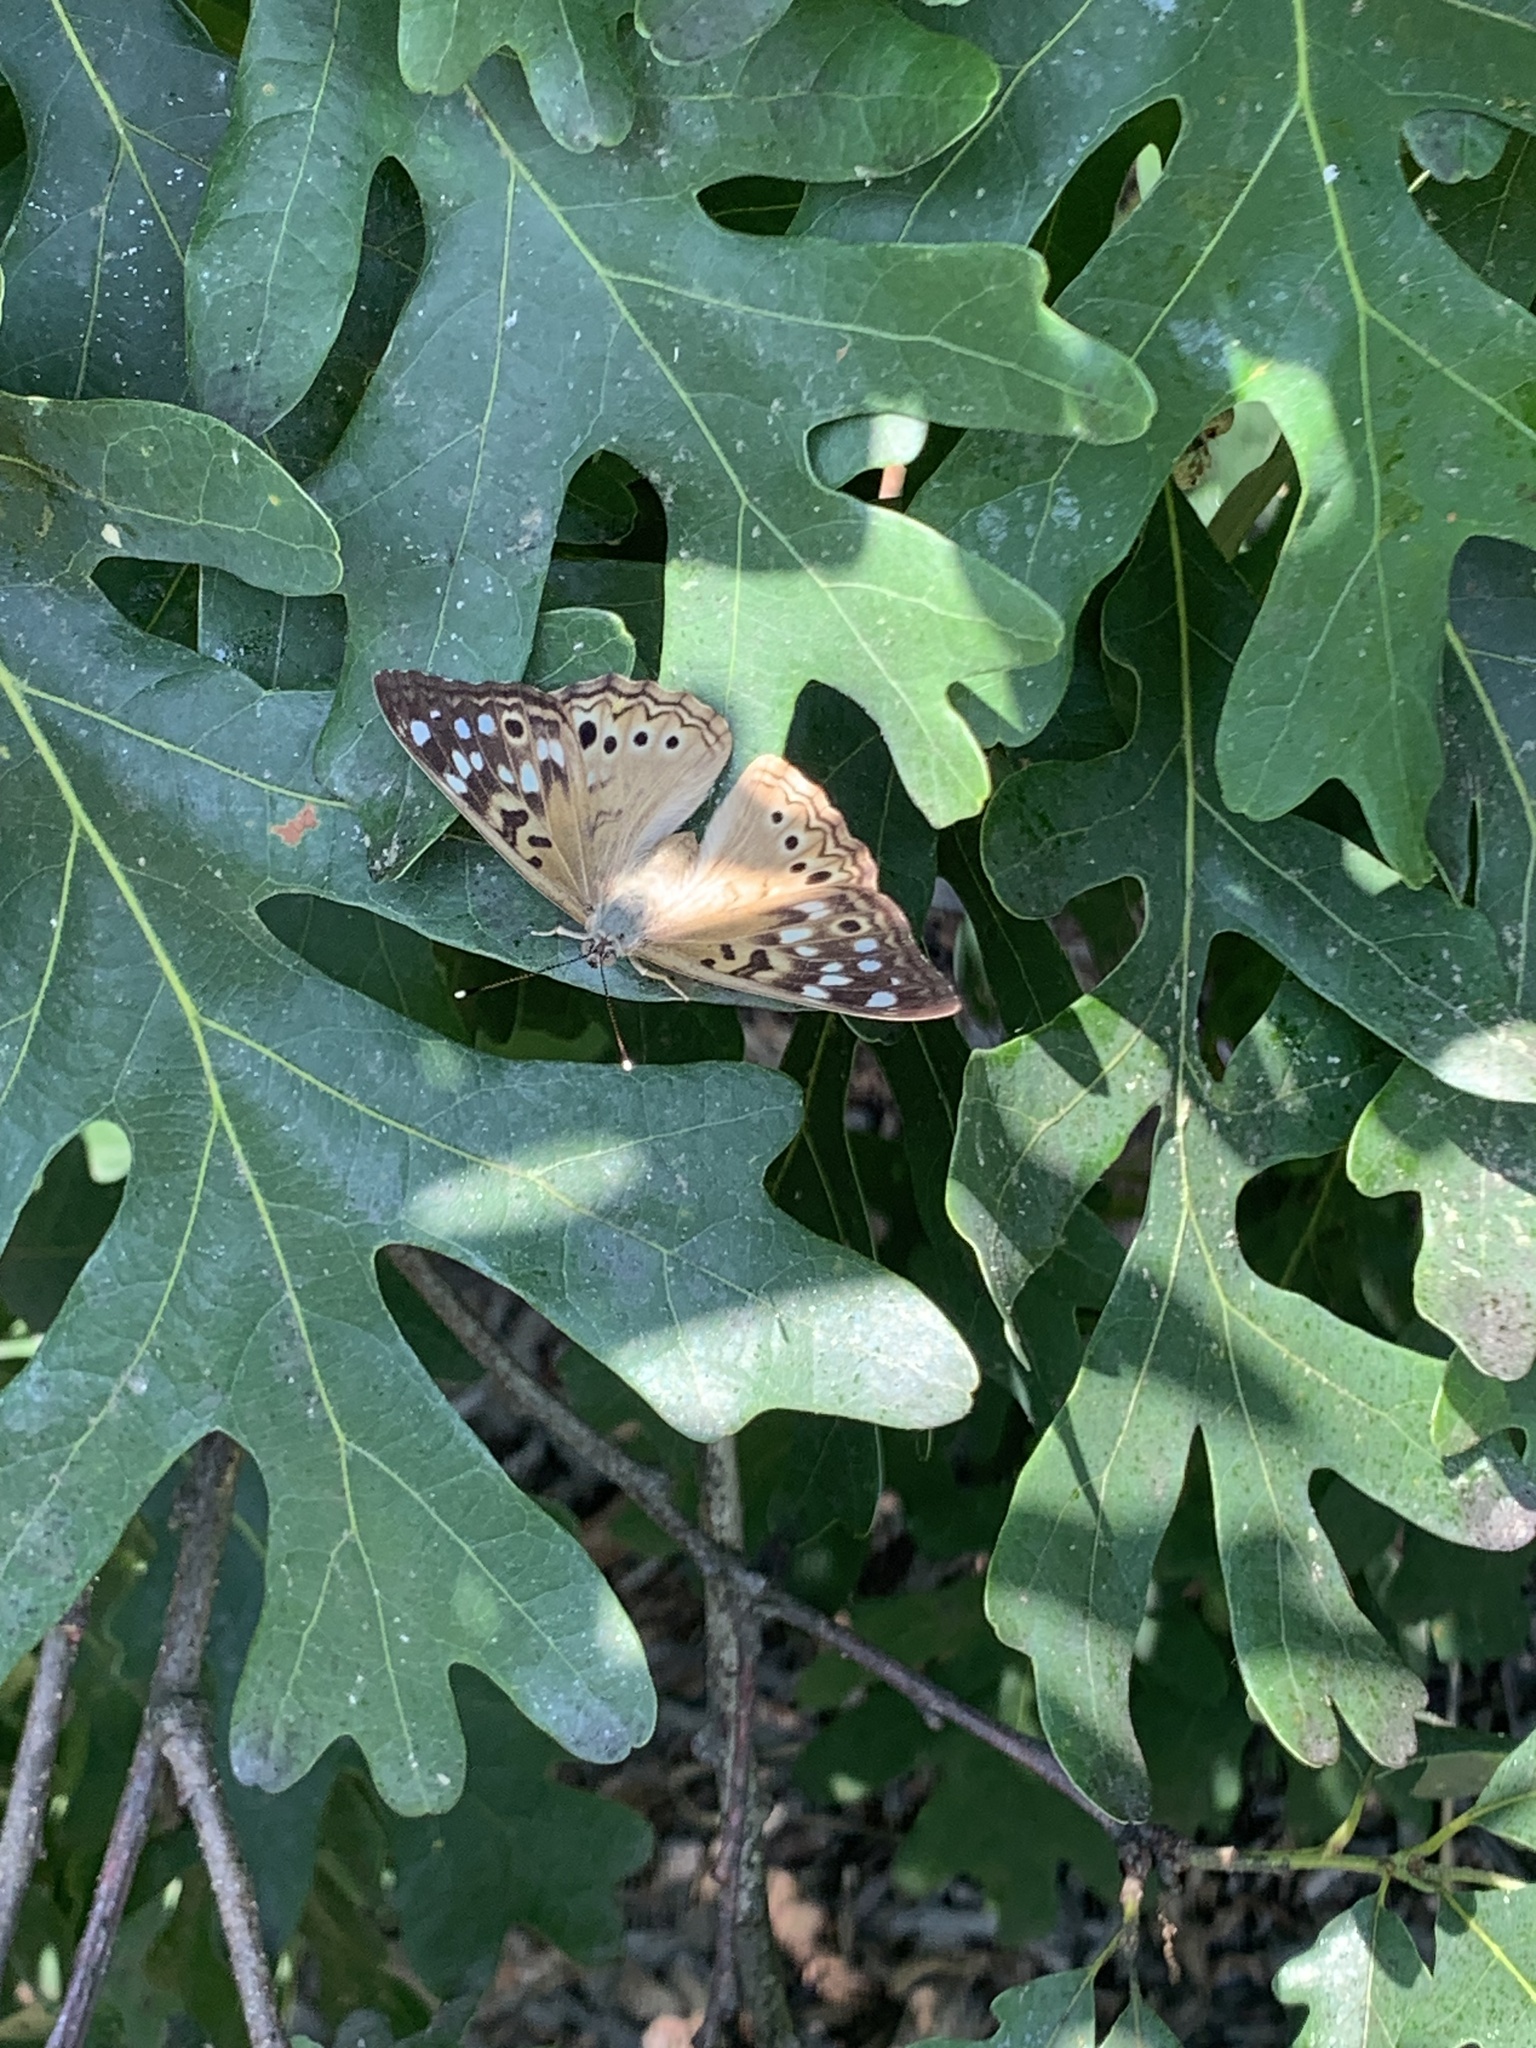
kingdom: Animalia
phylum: Arthropoda
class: Insecta
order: Lepidoptera
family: Nymphalidae
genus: Asterocampa
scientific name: Asterocampa celtis
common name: Hackberry emperor
